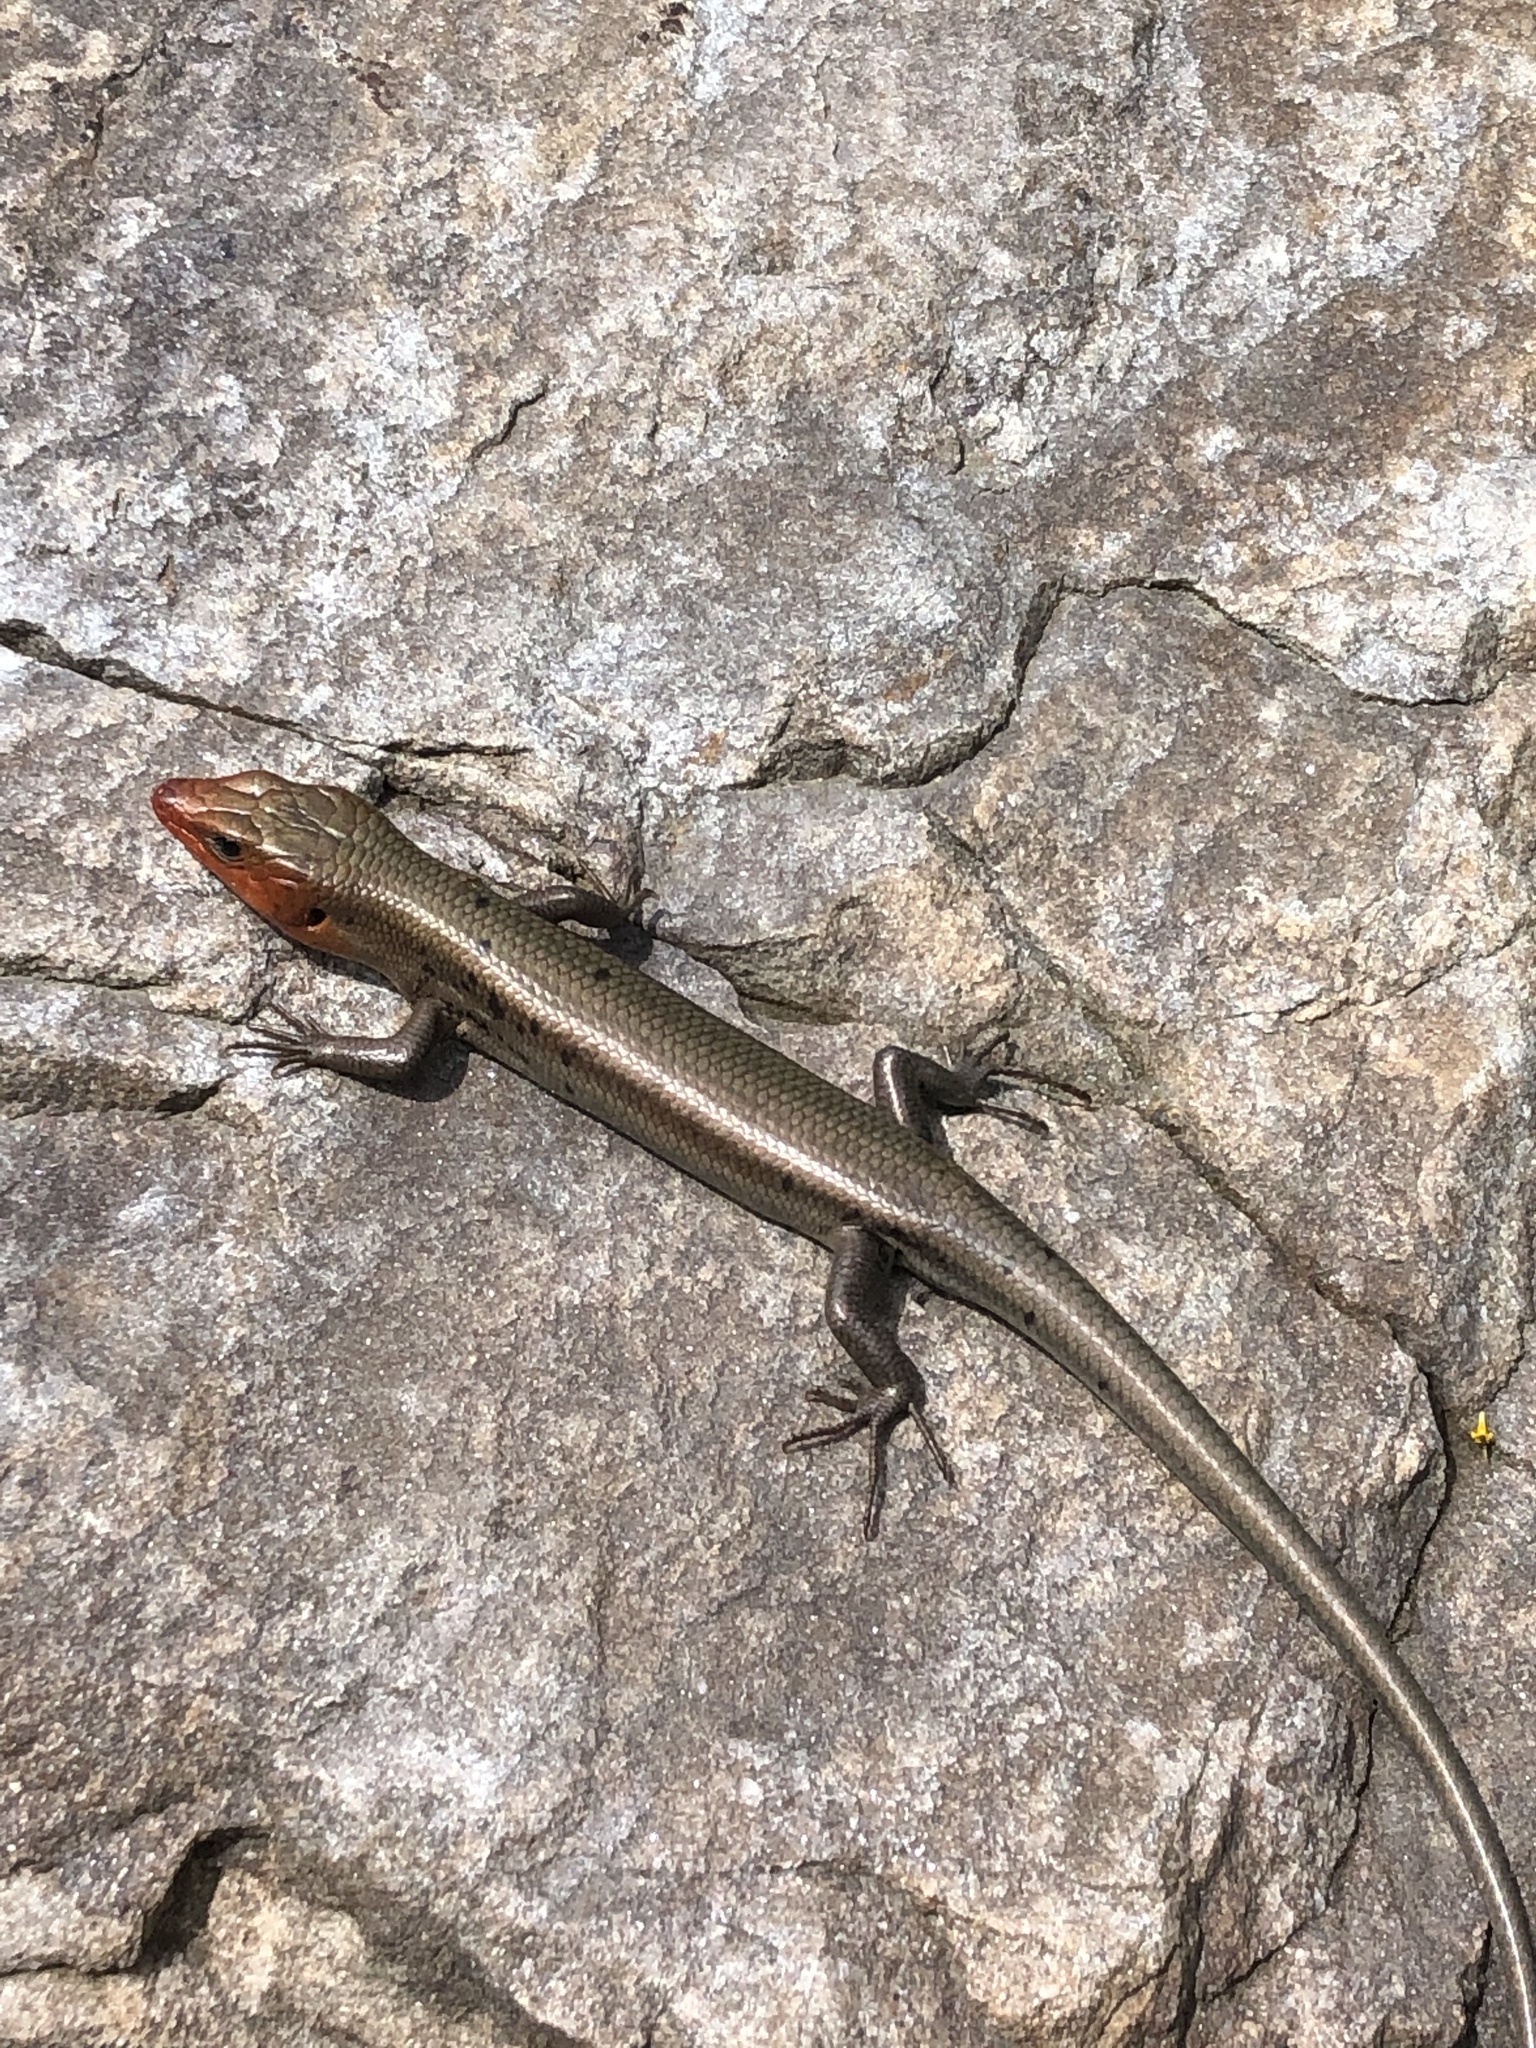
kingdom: Animalia
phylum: Chordata
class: Squamata
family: Scincidae
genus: Plestiodon
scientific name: Plestiodon fasciatus
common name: Five-lined skink
